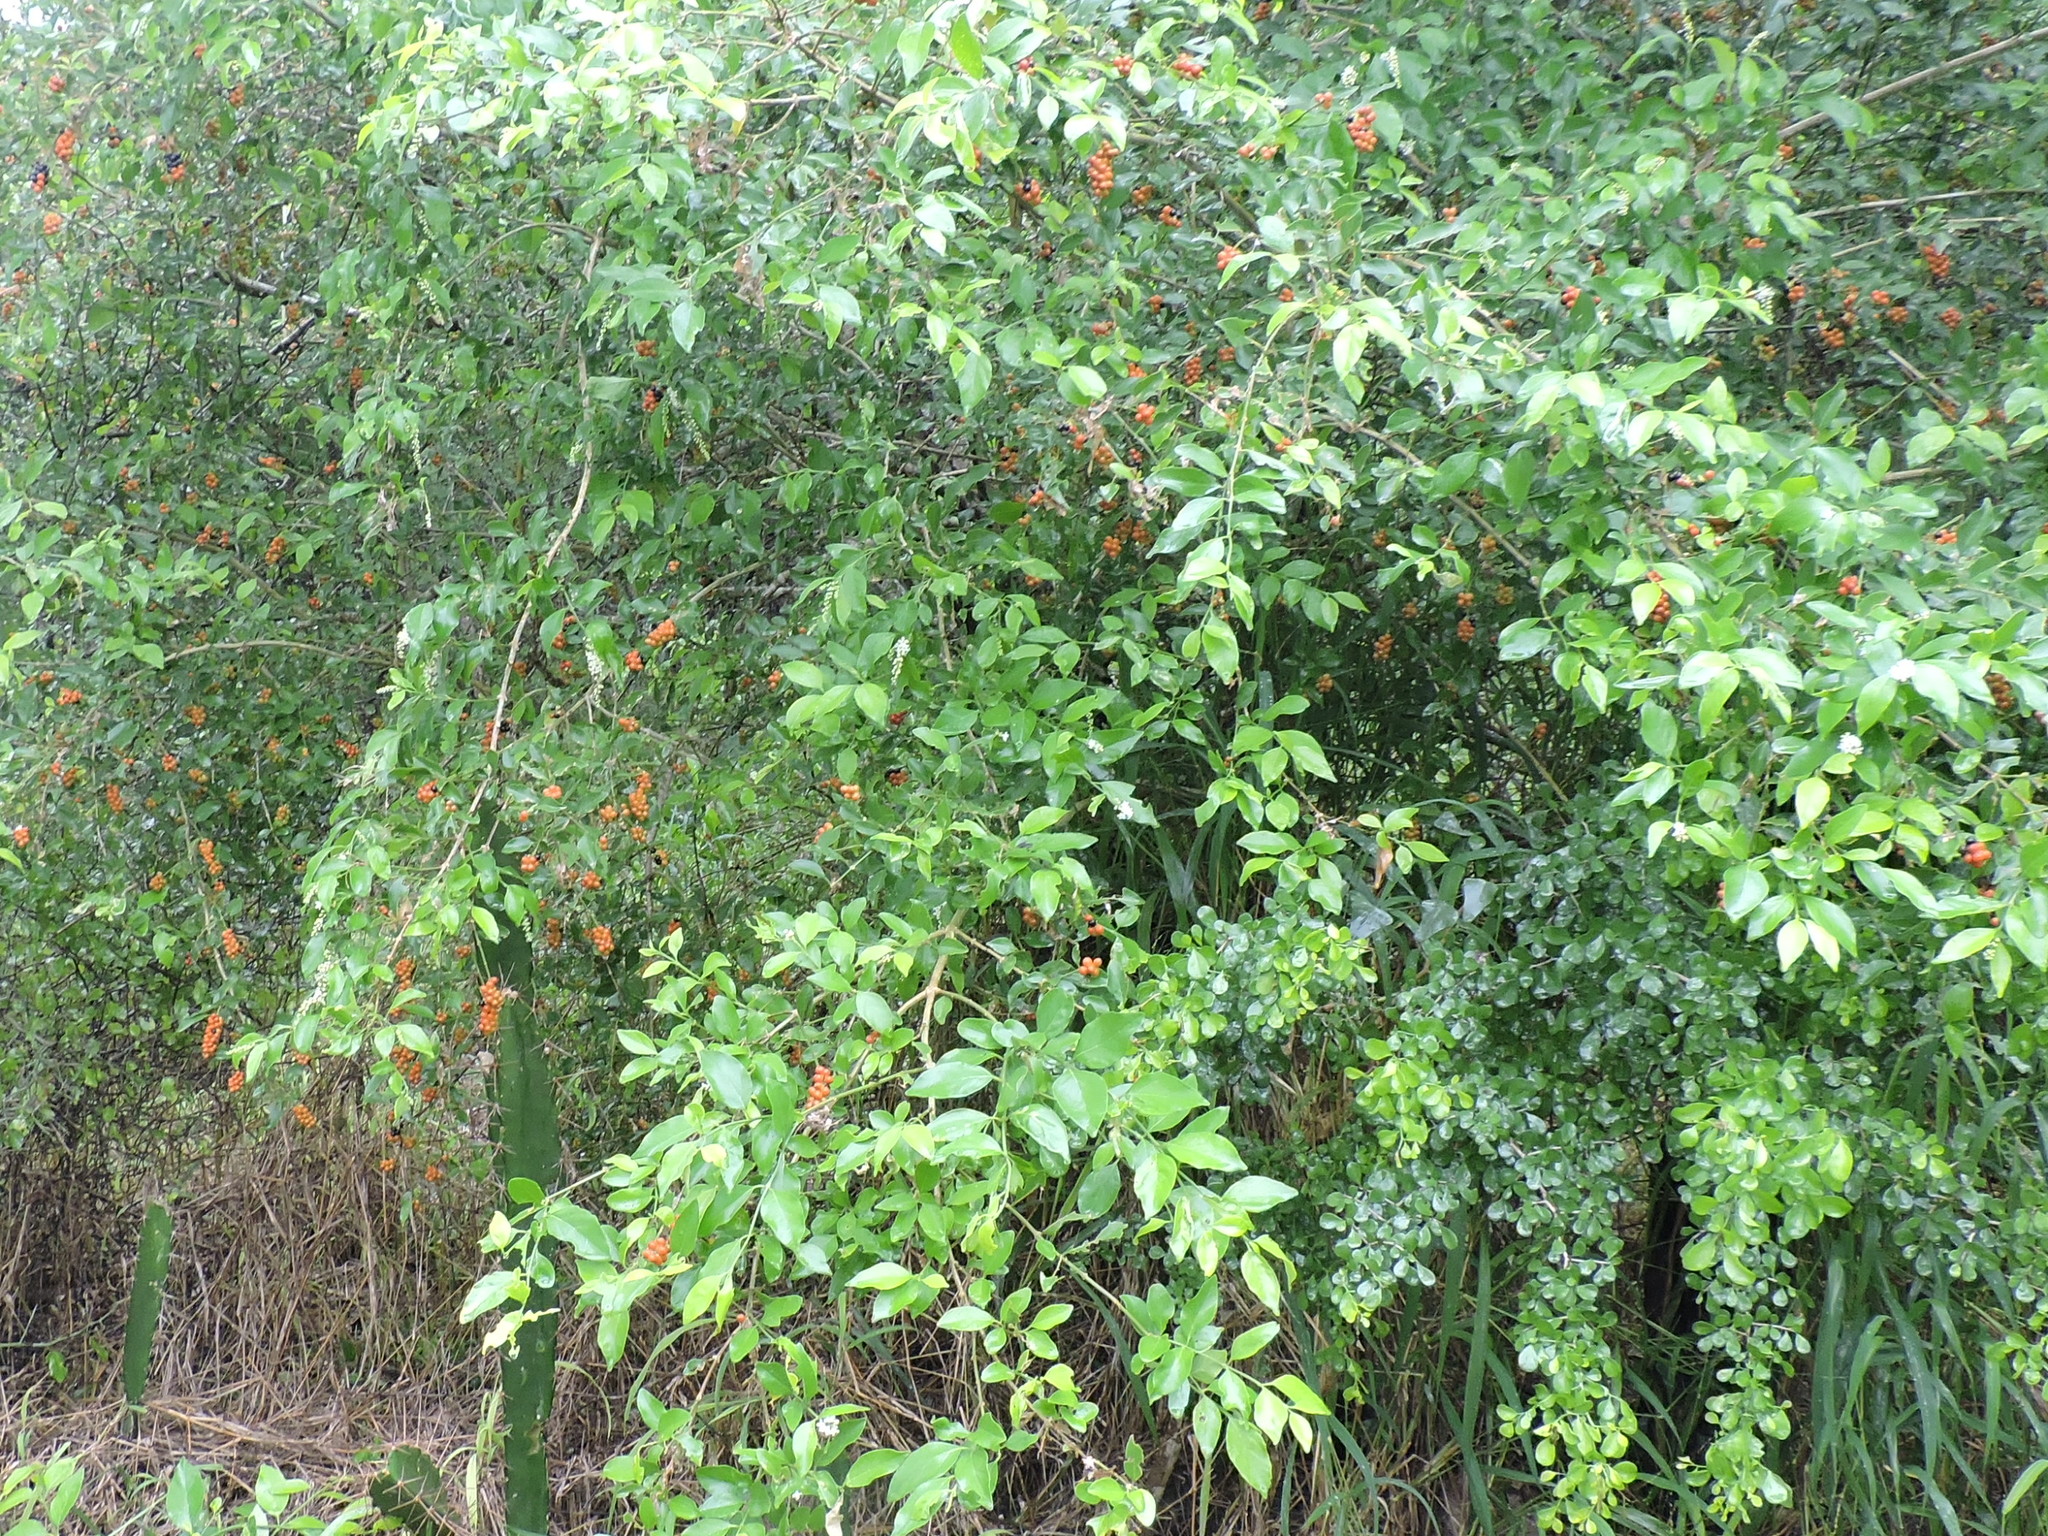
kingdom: Plantae
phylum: Tracheophyta
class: Magnoliopsida
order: Lamiales
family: Verbenaceae
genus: Citharexylum
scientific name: Citharexylum berlandieri
